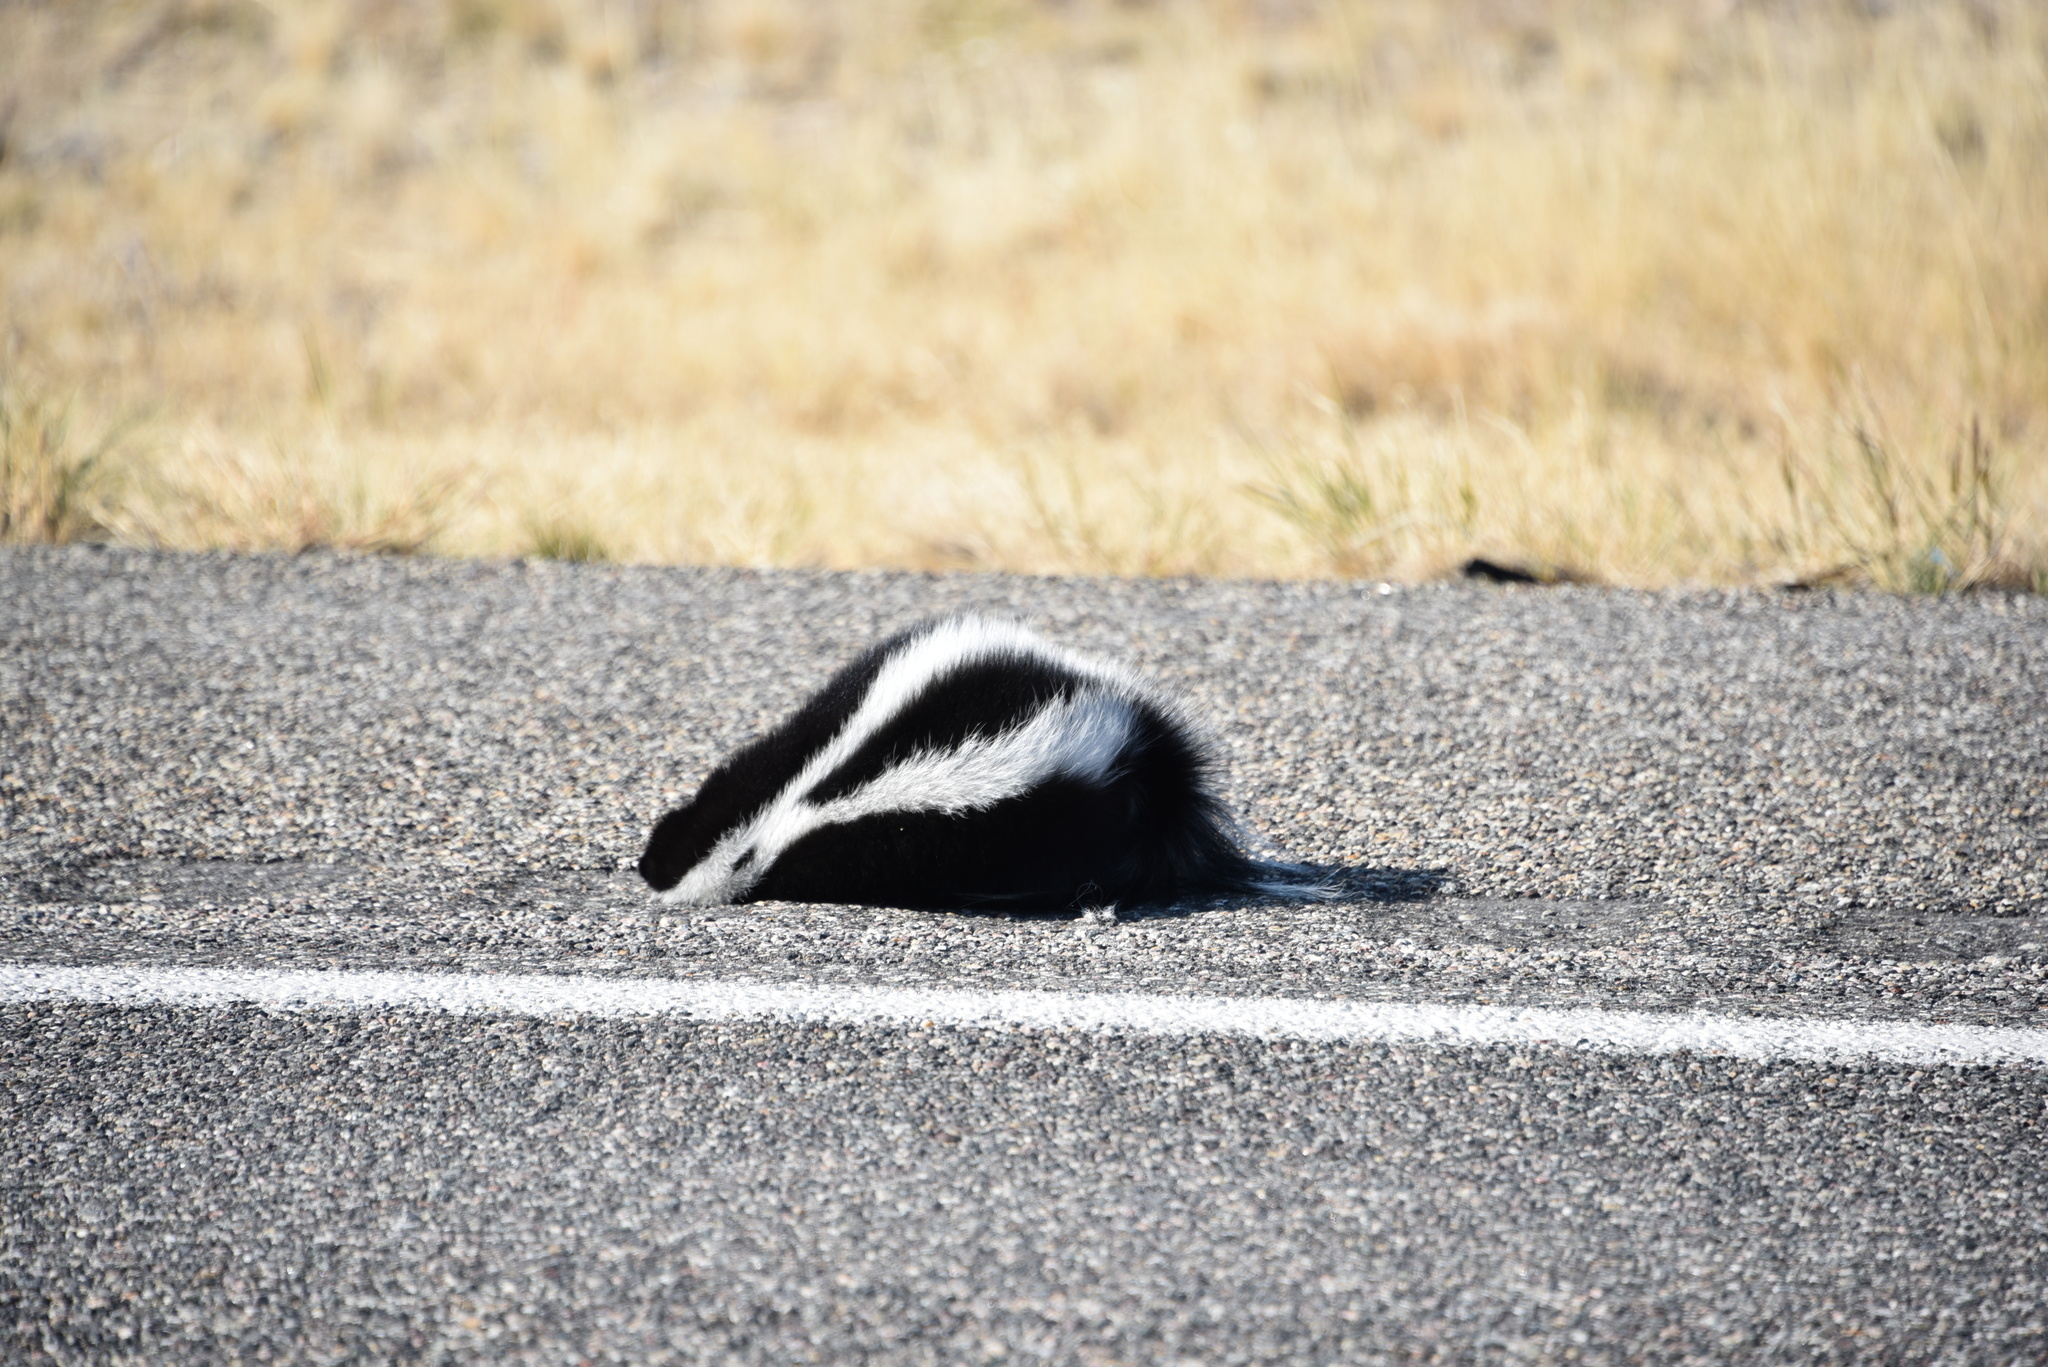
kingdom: Animalia
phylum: Chordata
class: Mammalia
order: Carnivora
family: Mephitidae
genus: Mephitis
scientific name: Mephitis mephitis
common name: Striped skunk
